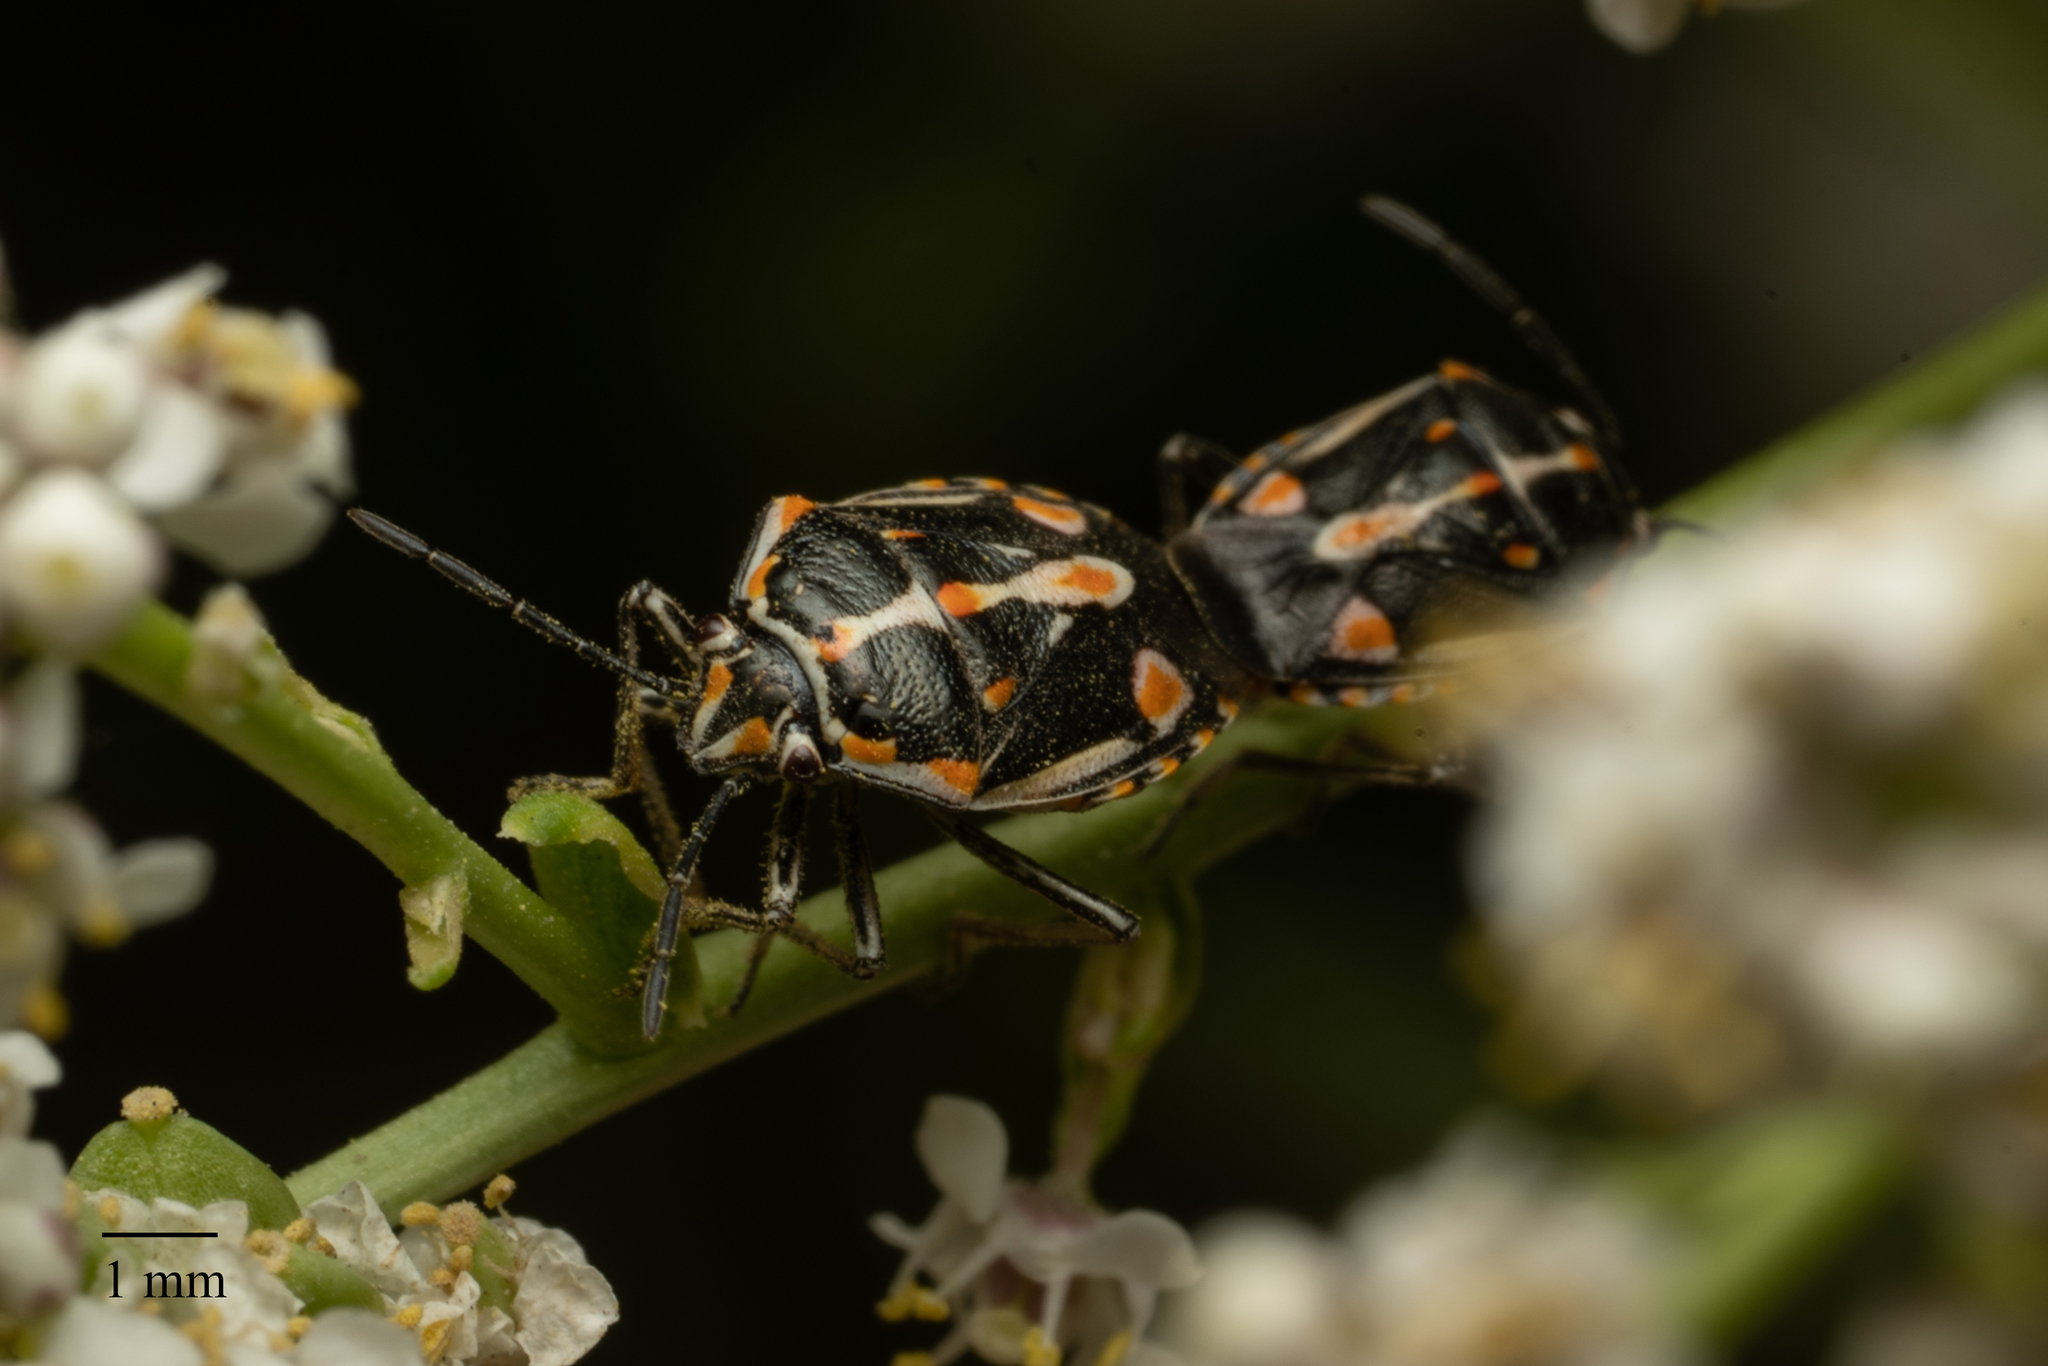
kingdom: Animalia
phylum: Arthropoda
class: Insecta
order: Hemiptera
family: Pentatomidae
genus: Bagrada
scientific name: Bagrada hilaris
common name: Bagrada bug
